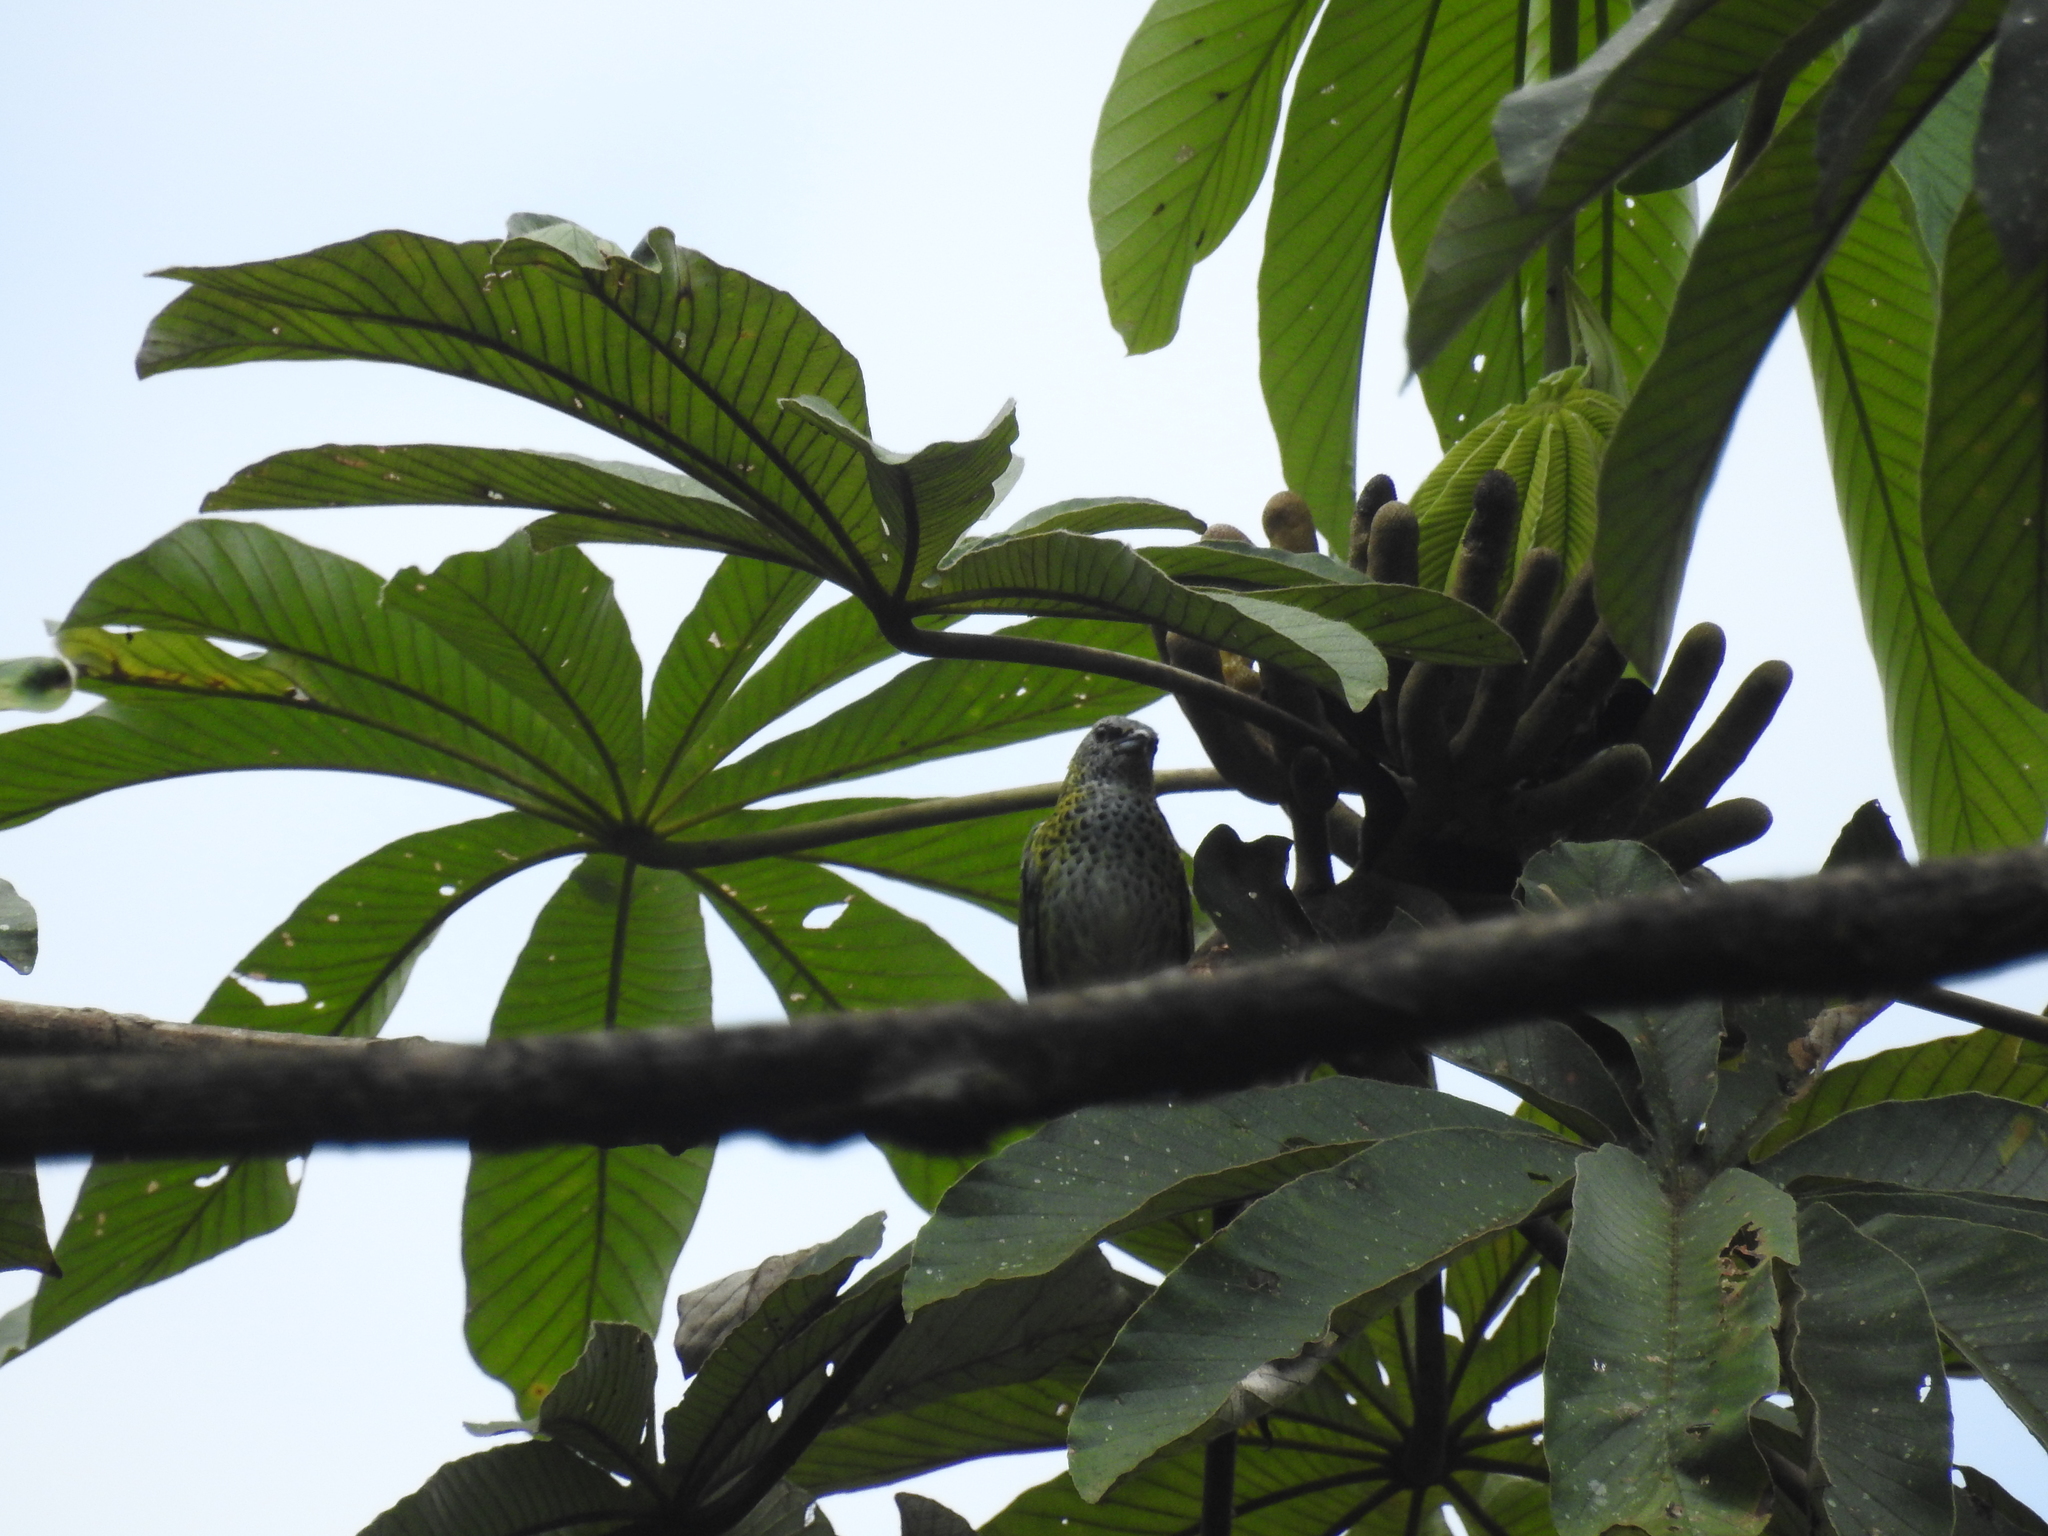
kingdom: Animalia
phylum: Chordata
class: Aves
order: Passeriformes
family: Thraupidae
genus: Ixothraupis
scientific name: Ixothraupis punctata
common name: Spotted tanager
